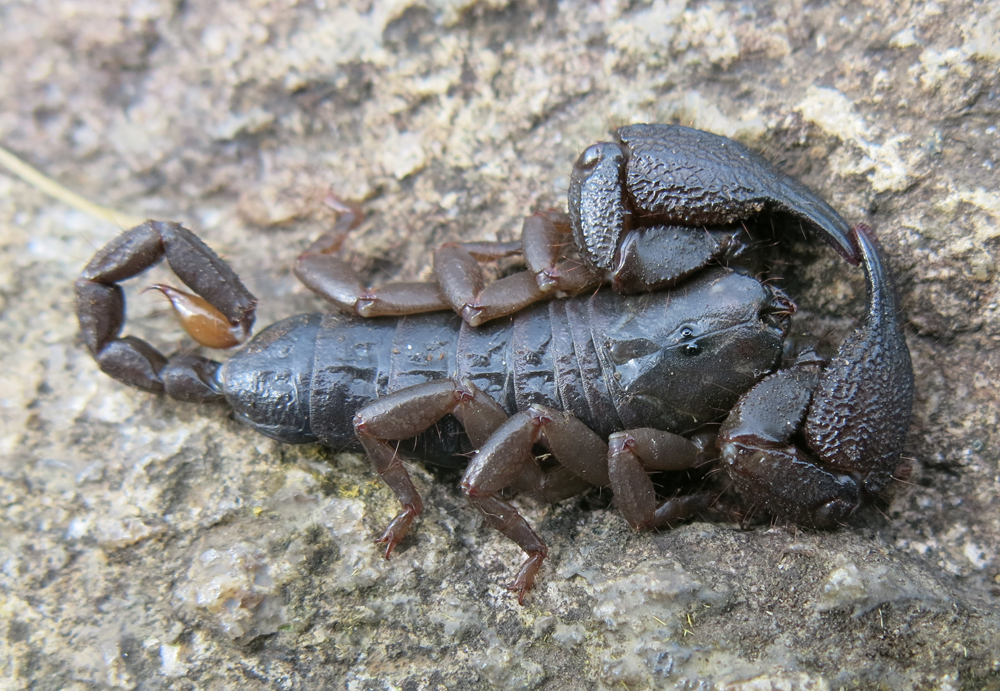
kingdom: Animalia
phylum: Arthropoda
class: Arachnida
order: Scorpiones
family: Hormuridae
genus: Opisthacanthus
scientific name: Opisthacanthus validus
